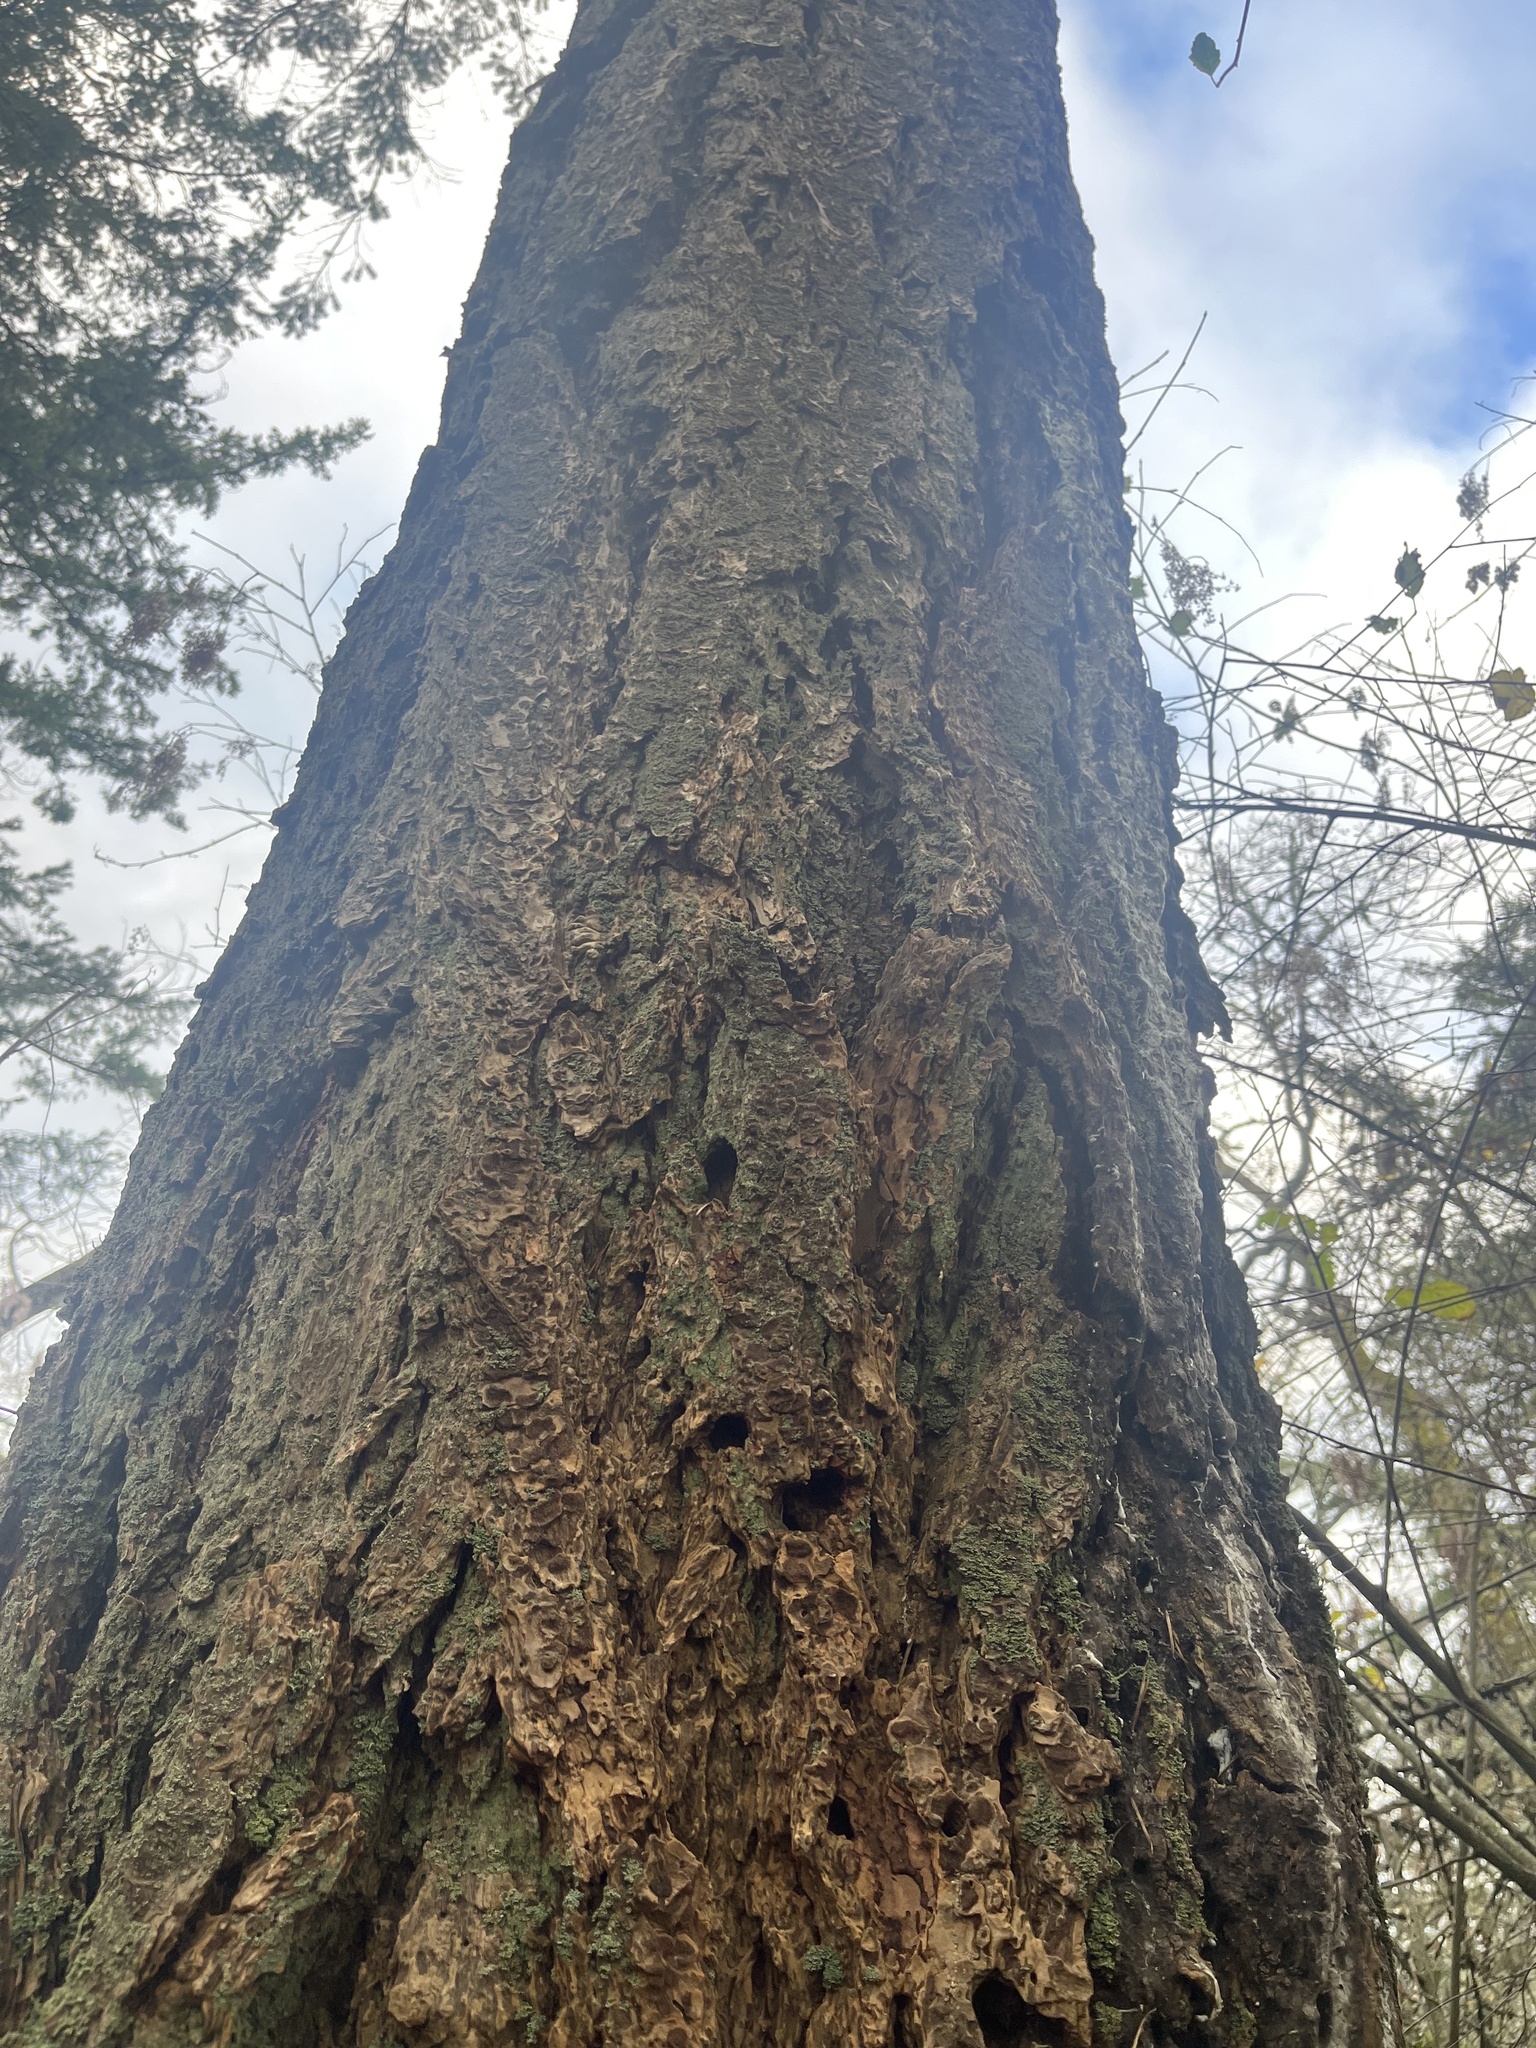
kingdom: Plantae
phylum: Tracheophyta
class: Pinopsida
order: Pinales
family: Pinaceae
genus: Pseudotsuga
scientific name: Pseudotsuga menziesii
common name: Douglas fir
